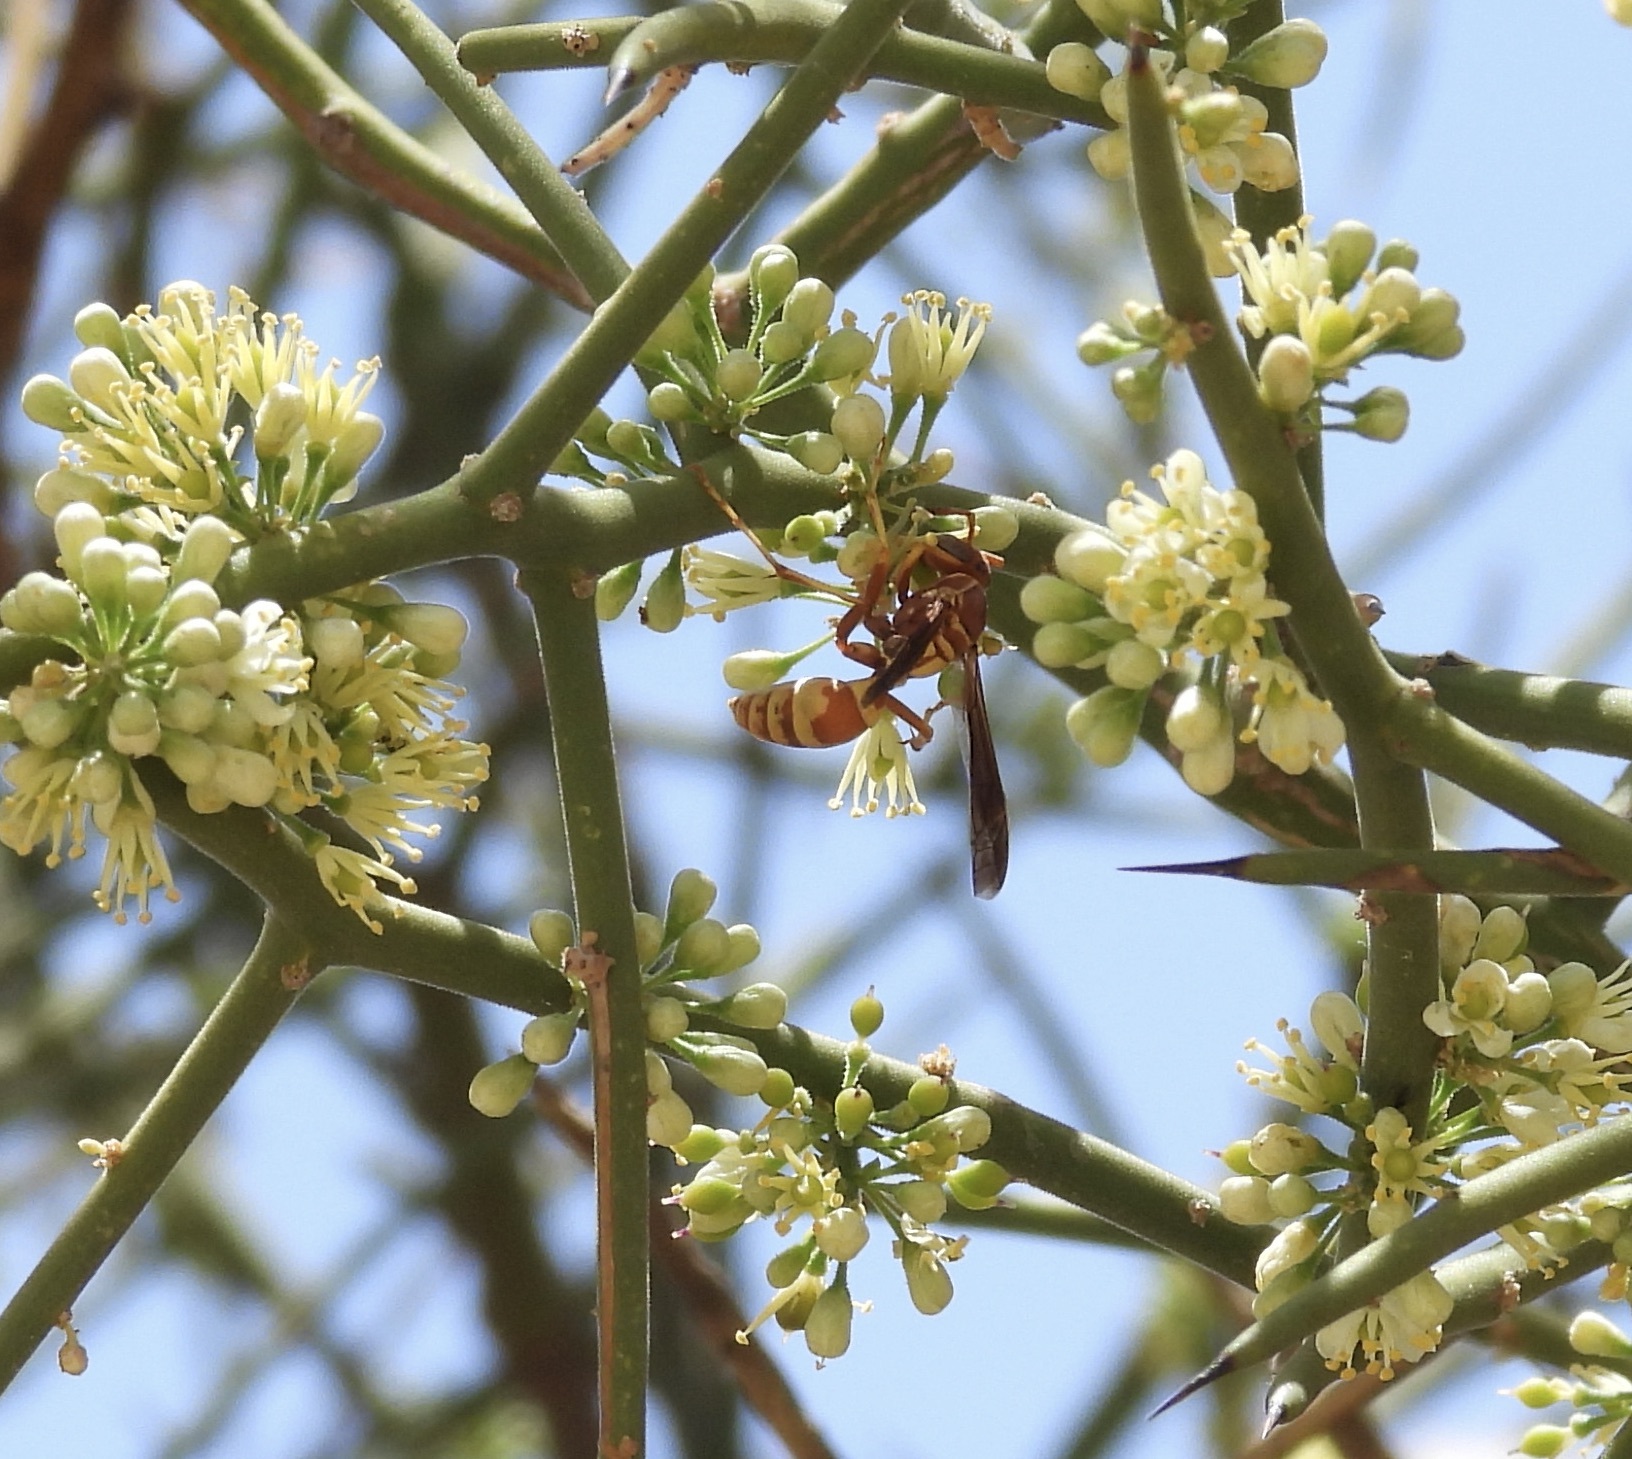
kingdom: Animalia
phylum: Arthropoda
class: Insecta
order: Hymenoptera
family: Eumenidae
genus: Polistes
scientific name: Polistes dorsalis
